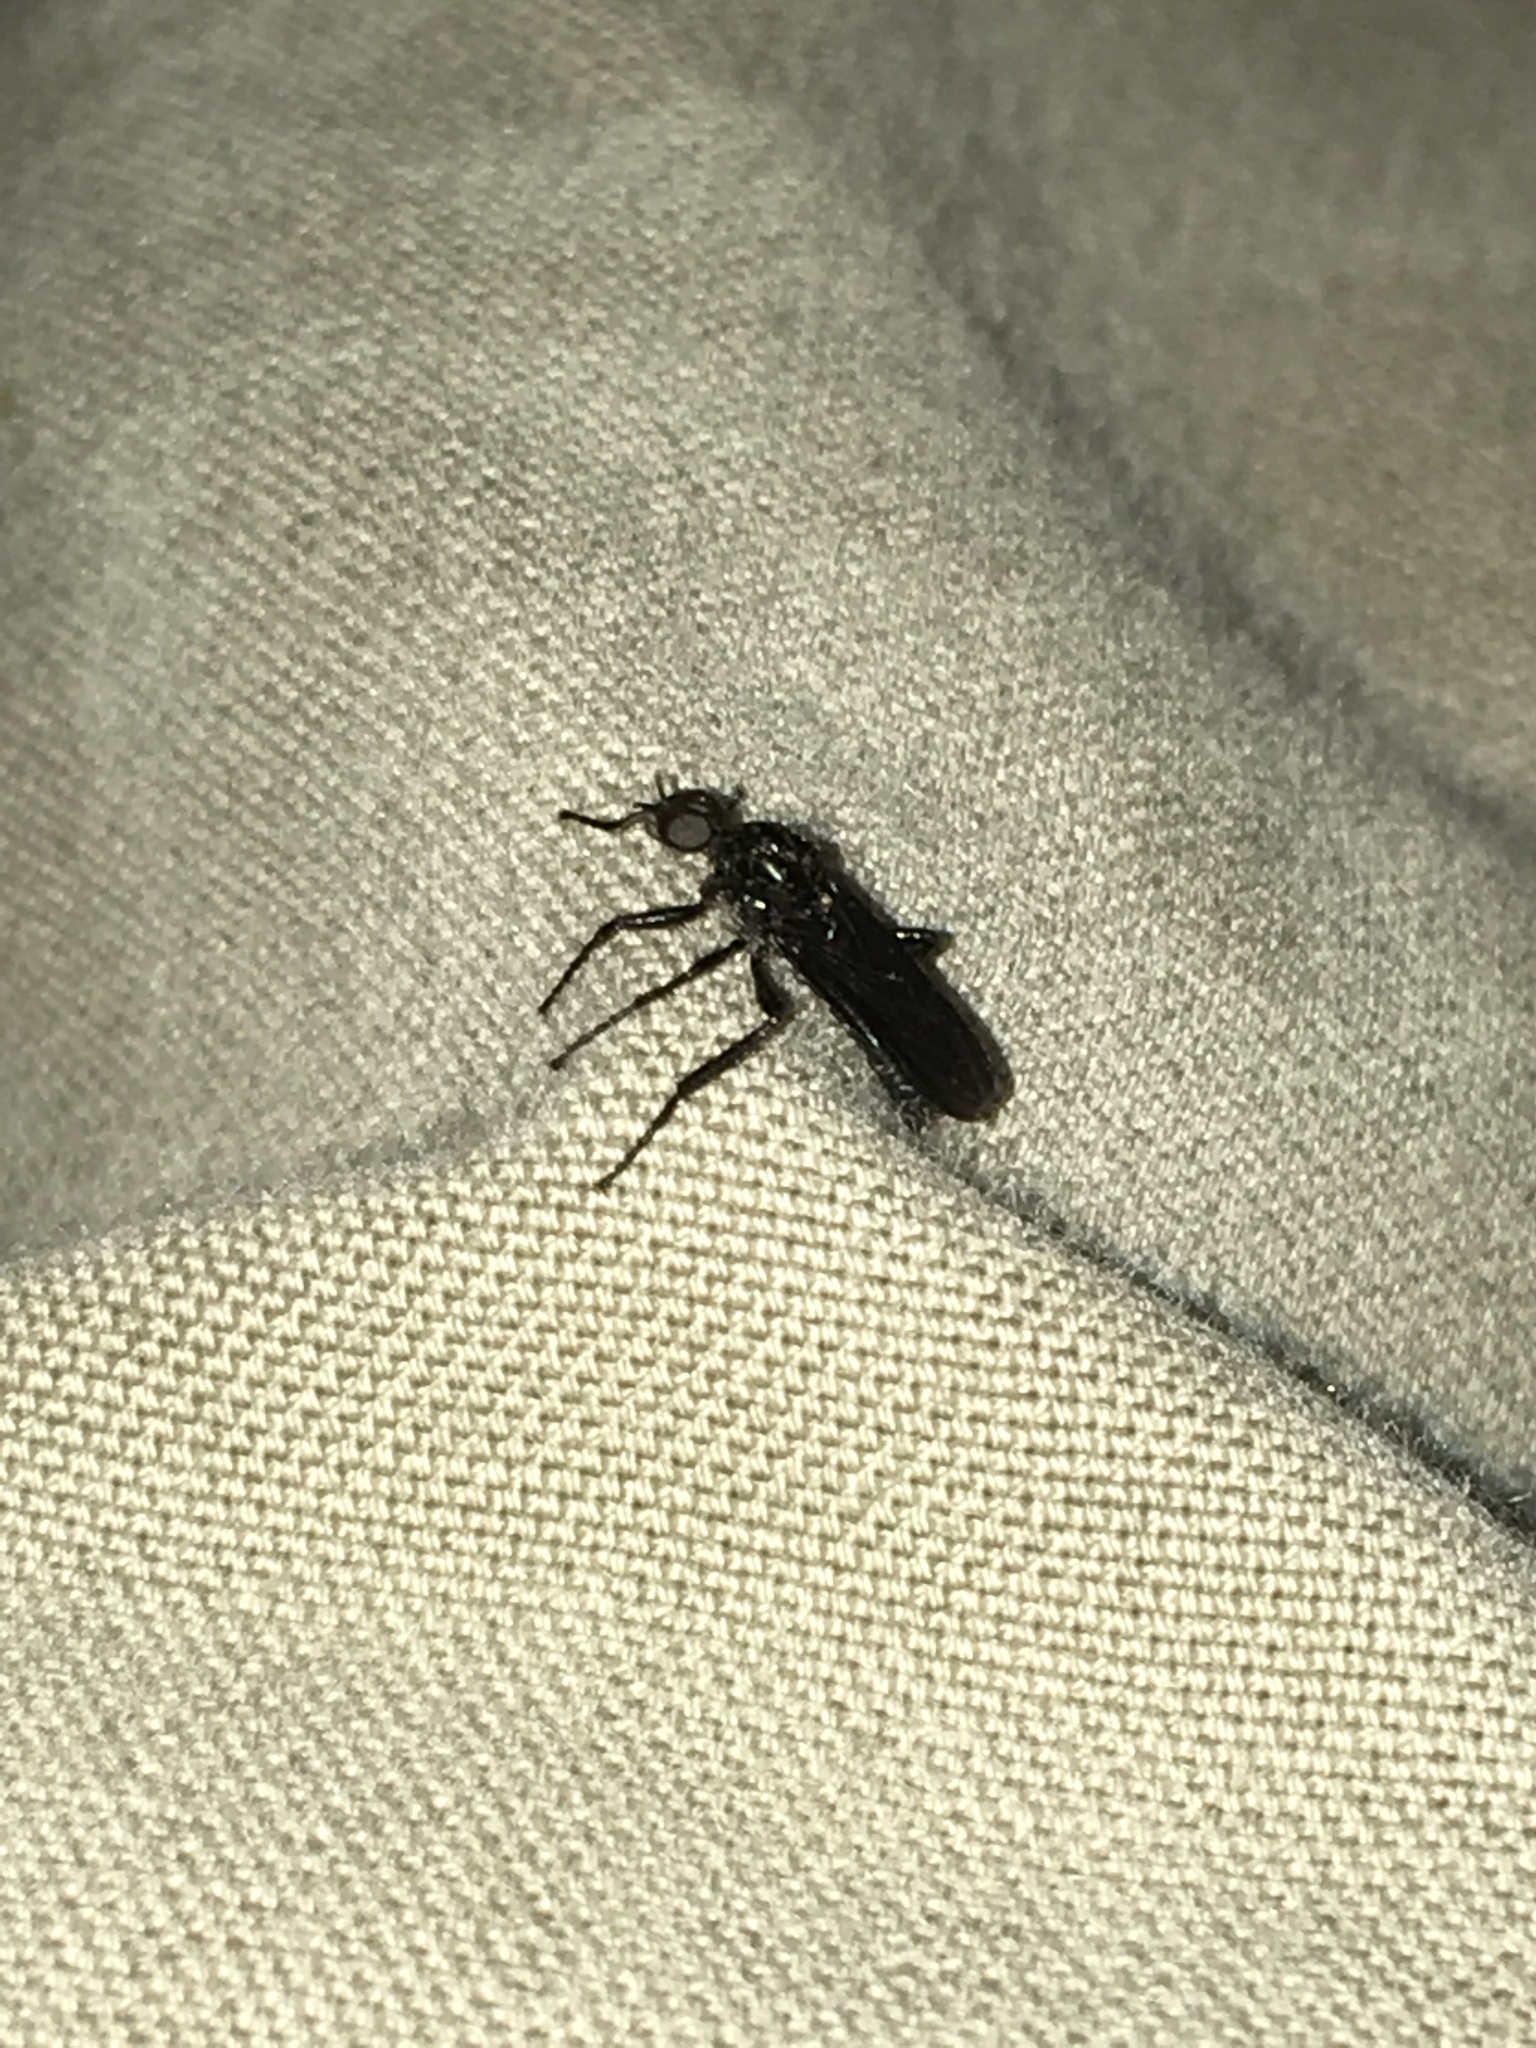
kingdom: Animalia
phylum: Arthropoda
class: Insecta
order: Diptera
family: Bibionidae
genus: Bibio
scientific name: Bibio superfluus
